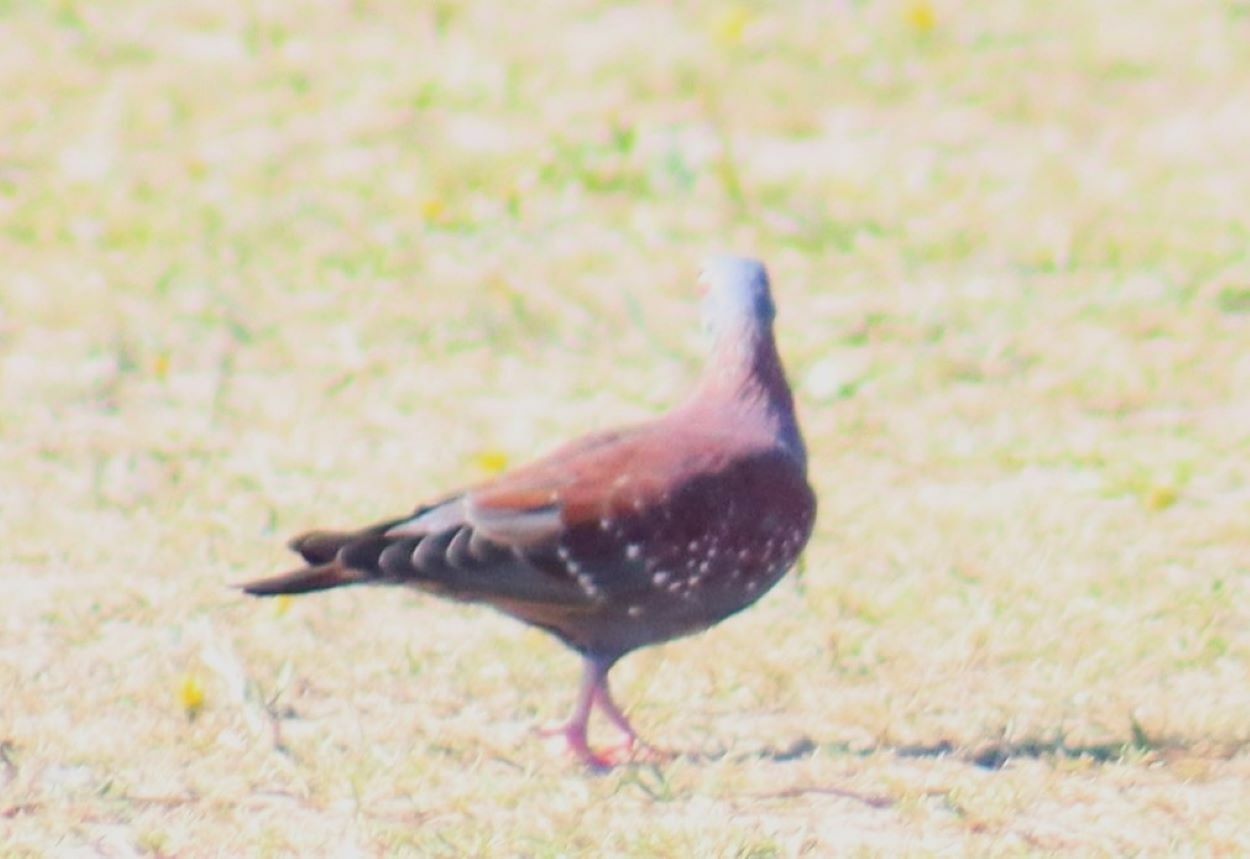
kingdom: Animalia
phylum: Chordata
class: Aves
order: Columbiformes
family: Columbidae
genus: Columba
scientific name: Columba guinea
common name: Speckled pigeon
